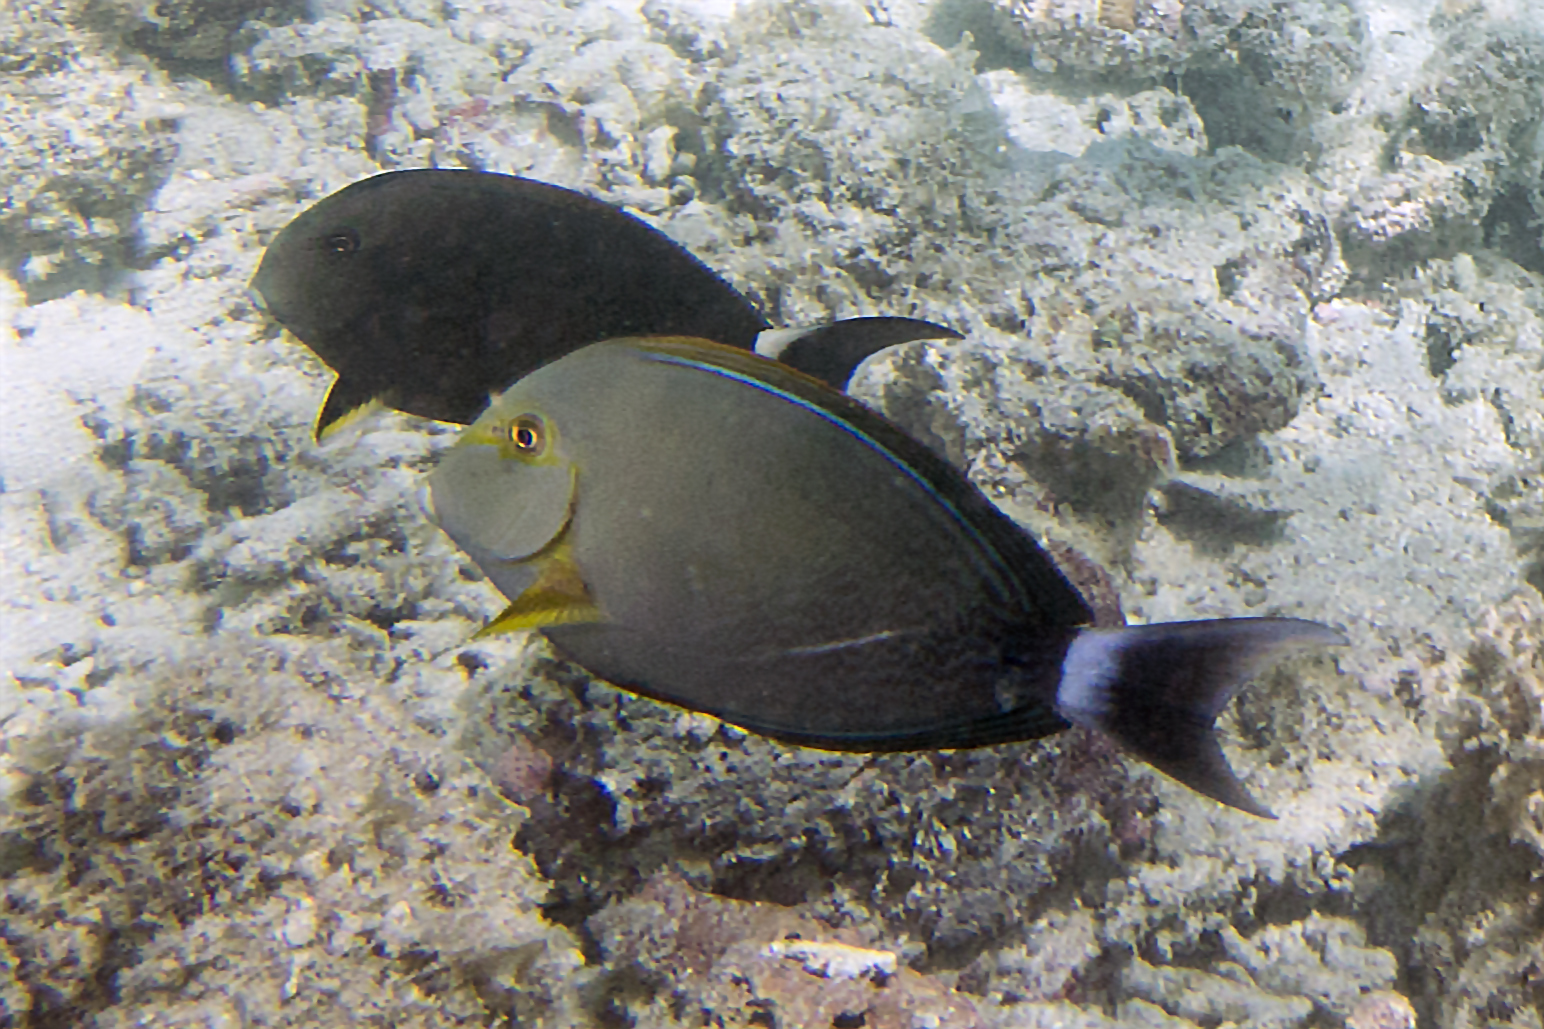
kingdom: Animalia
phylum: Chordata
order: Perciformes
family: Acanthuridae
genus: Acanthurus
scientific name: Acanthurus xanthopterus
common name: Cuvier's surgeonfish
